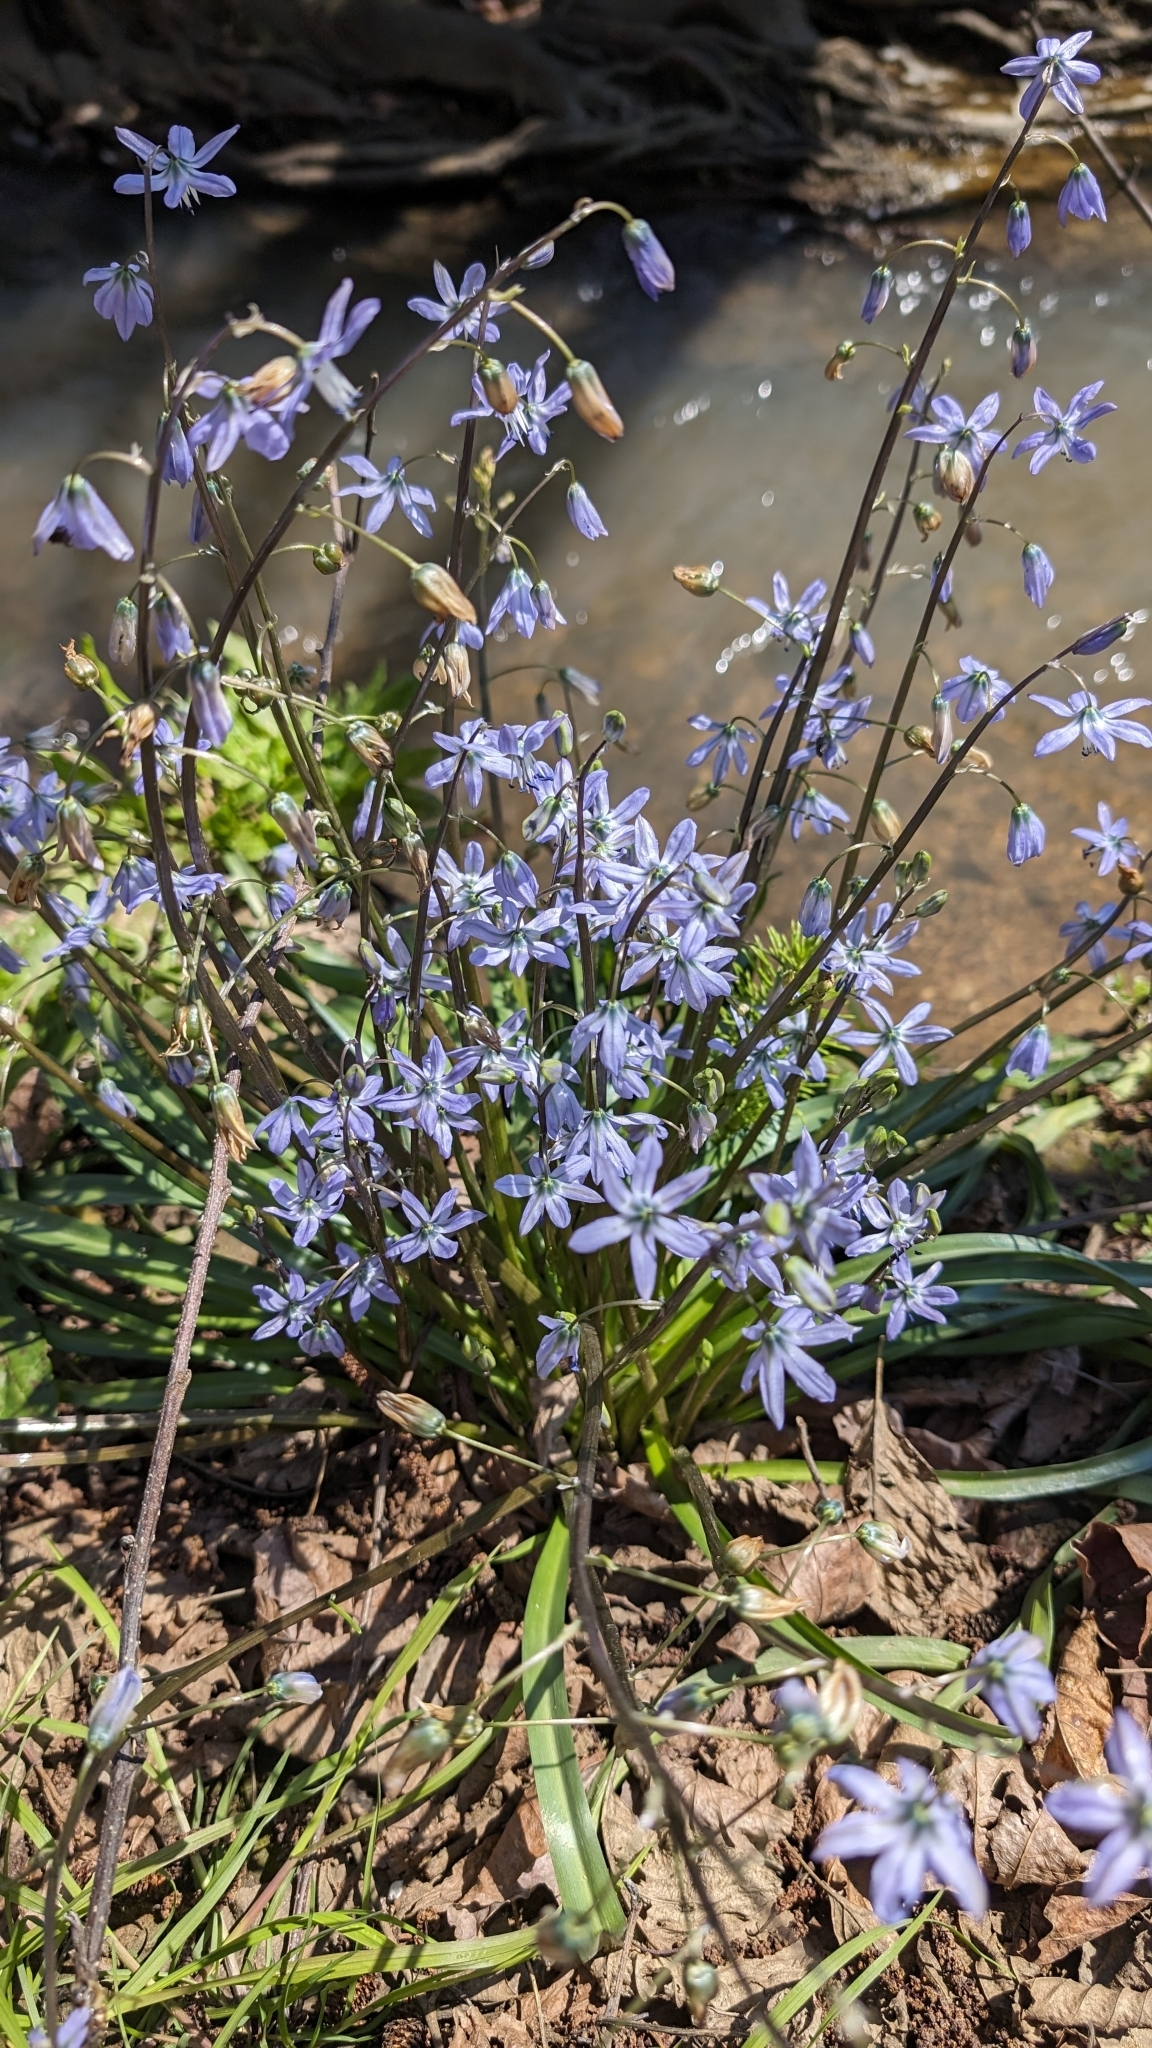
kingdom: Plantae
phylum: Tracheophyta
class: Liliopsida
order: Asparagales
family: Asparagaceae
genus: Scilla
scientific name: Scilla siberica
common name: Siberian squill
